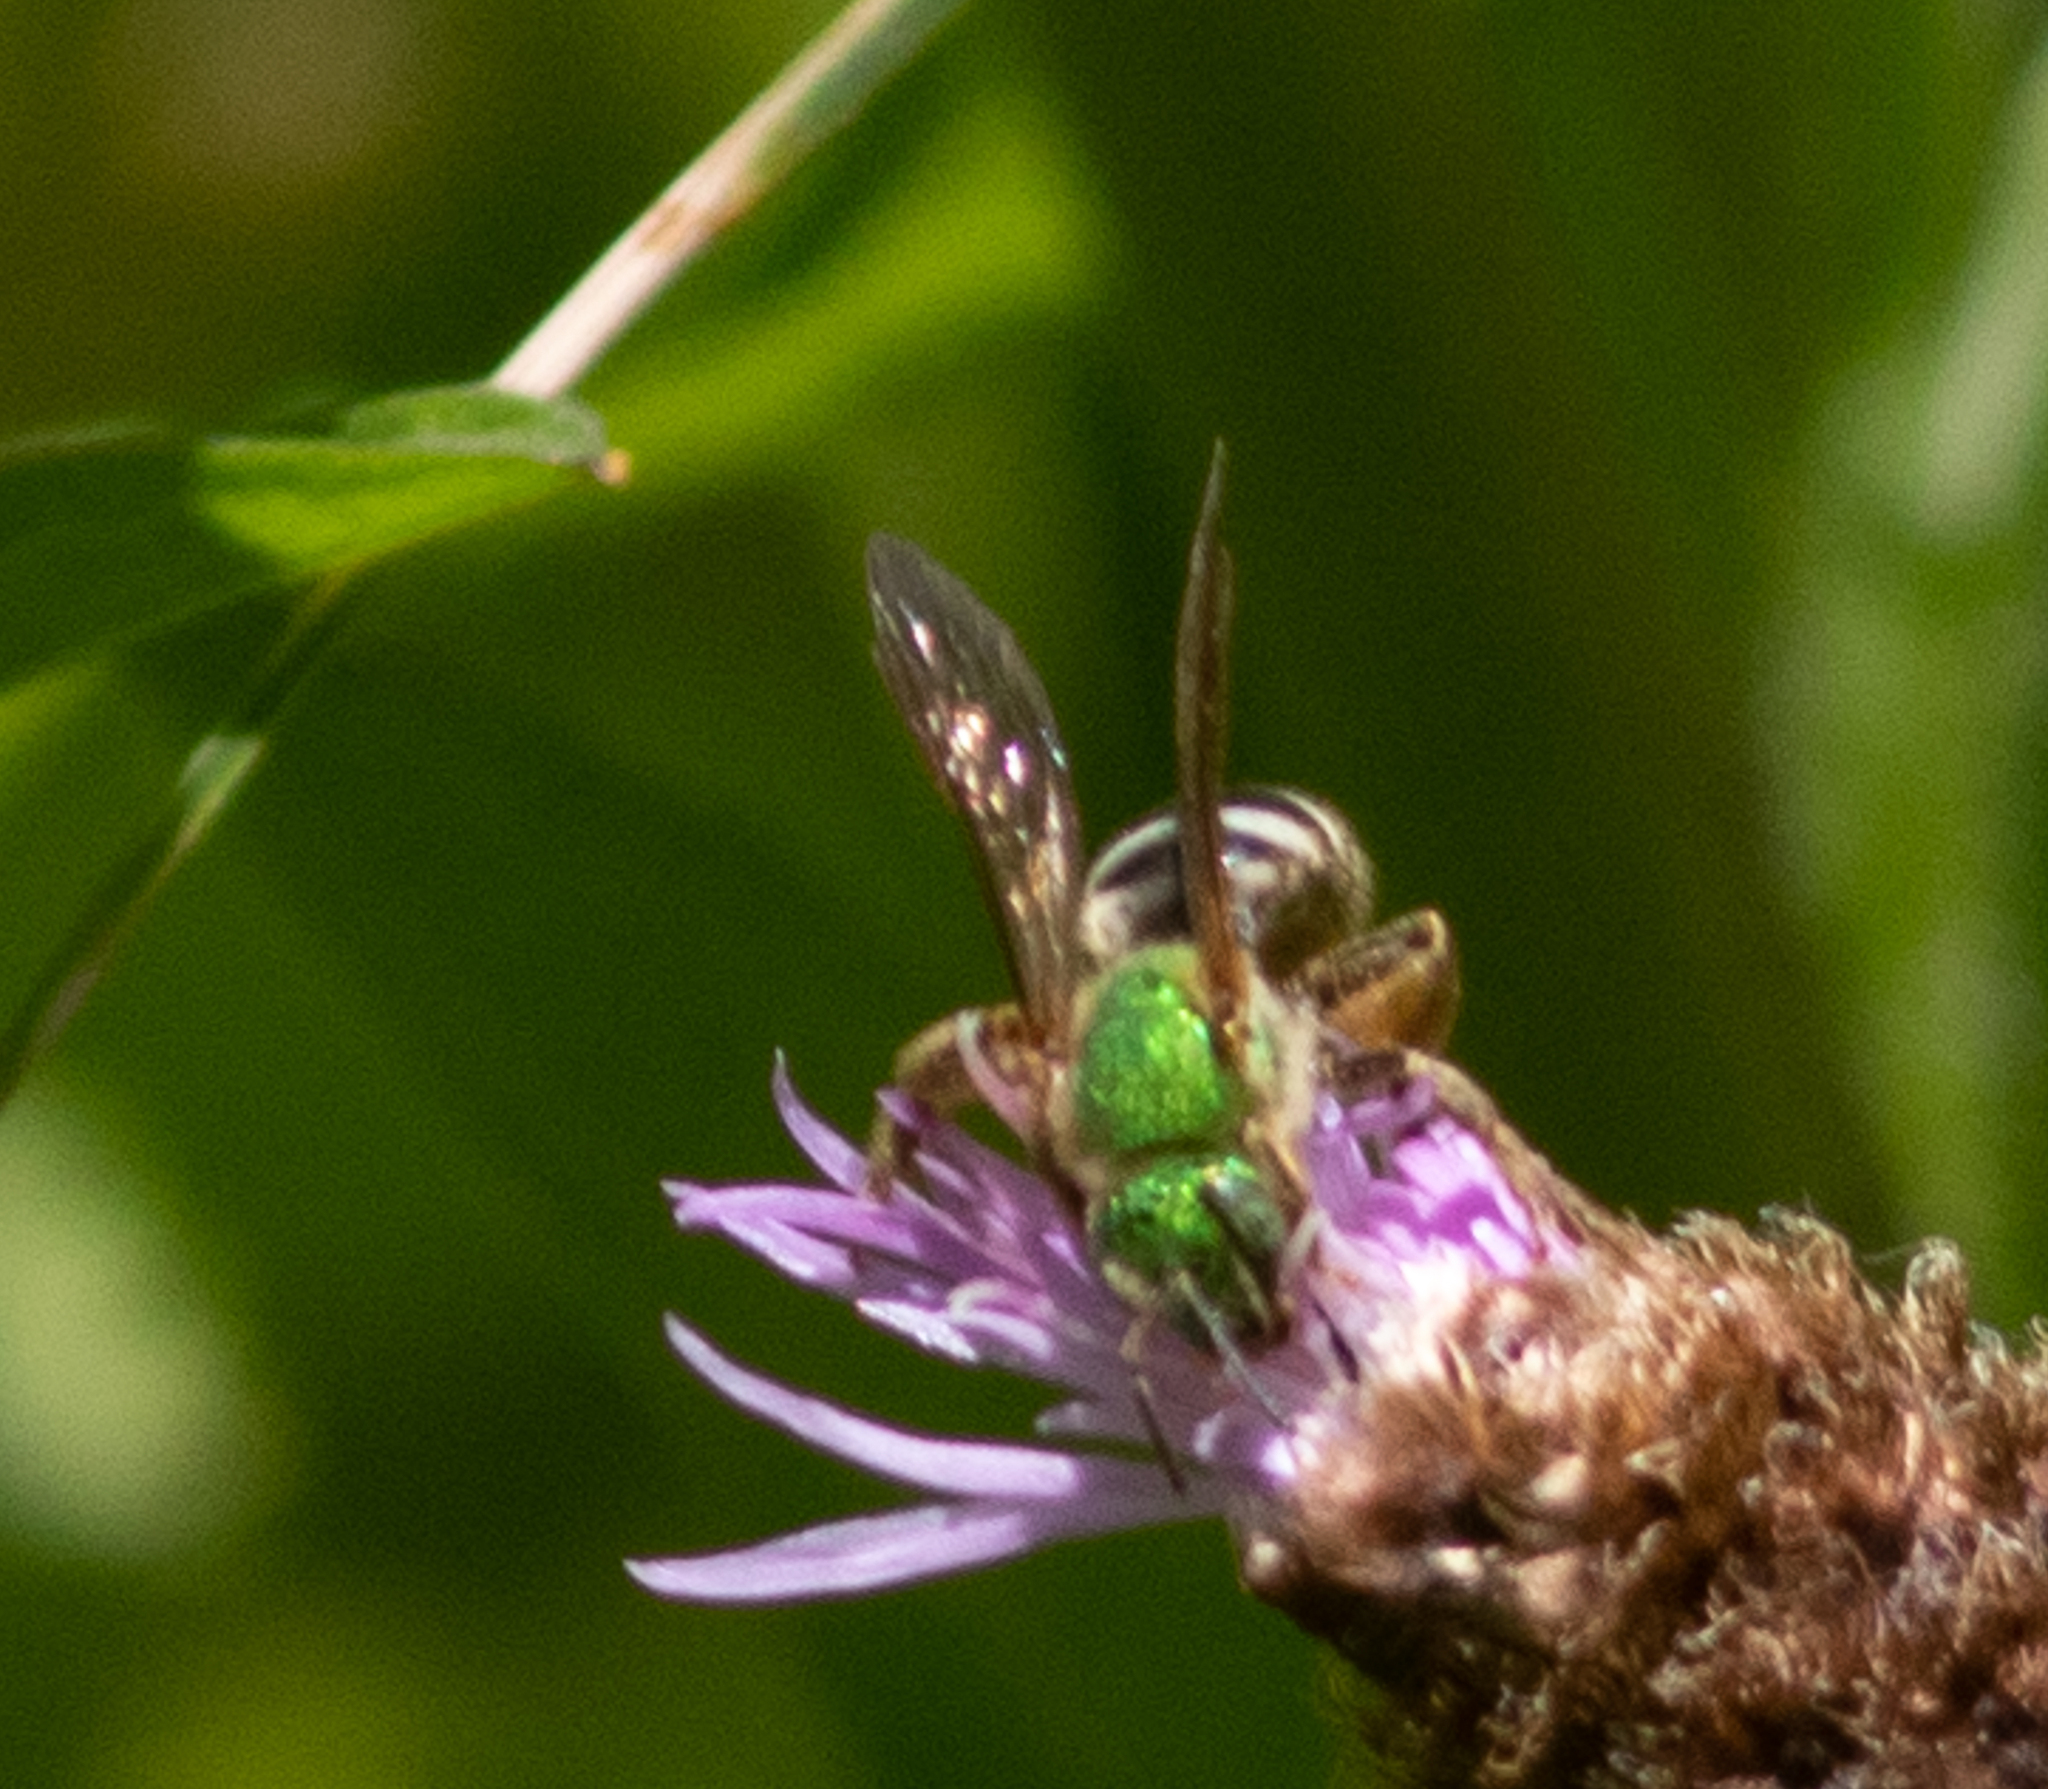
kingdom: Animalia
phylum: Arthropoda
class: Insecta
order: Hymenoptera
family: Halictidae
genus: Agapostemon
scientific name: Agapostemon virescens
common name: Bicolored striped sweat bee
